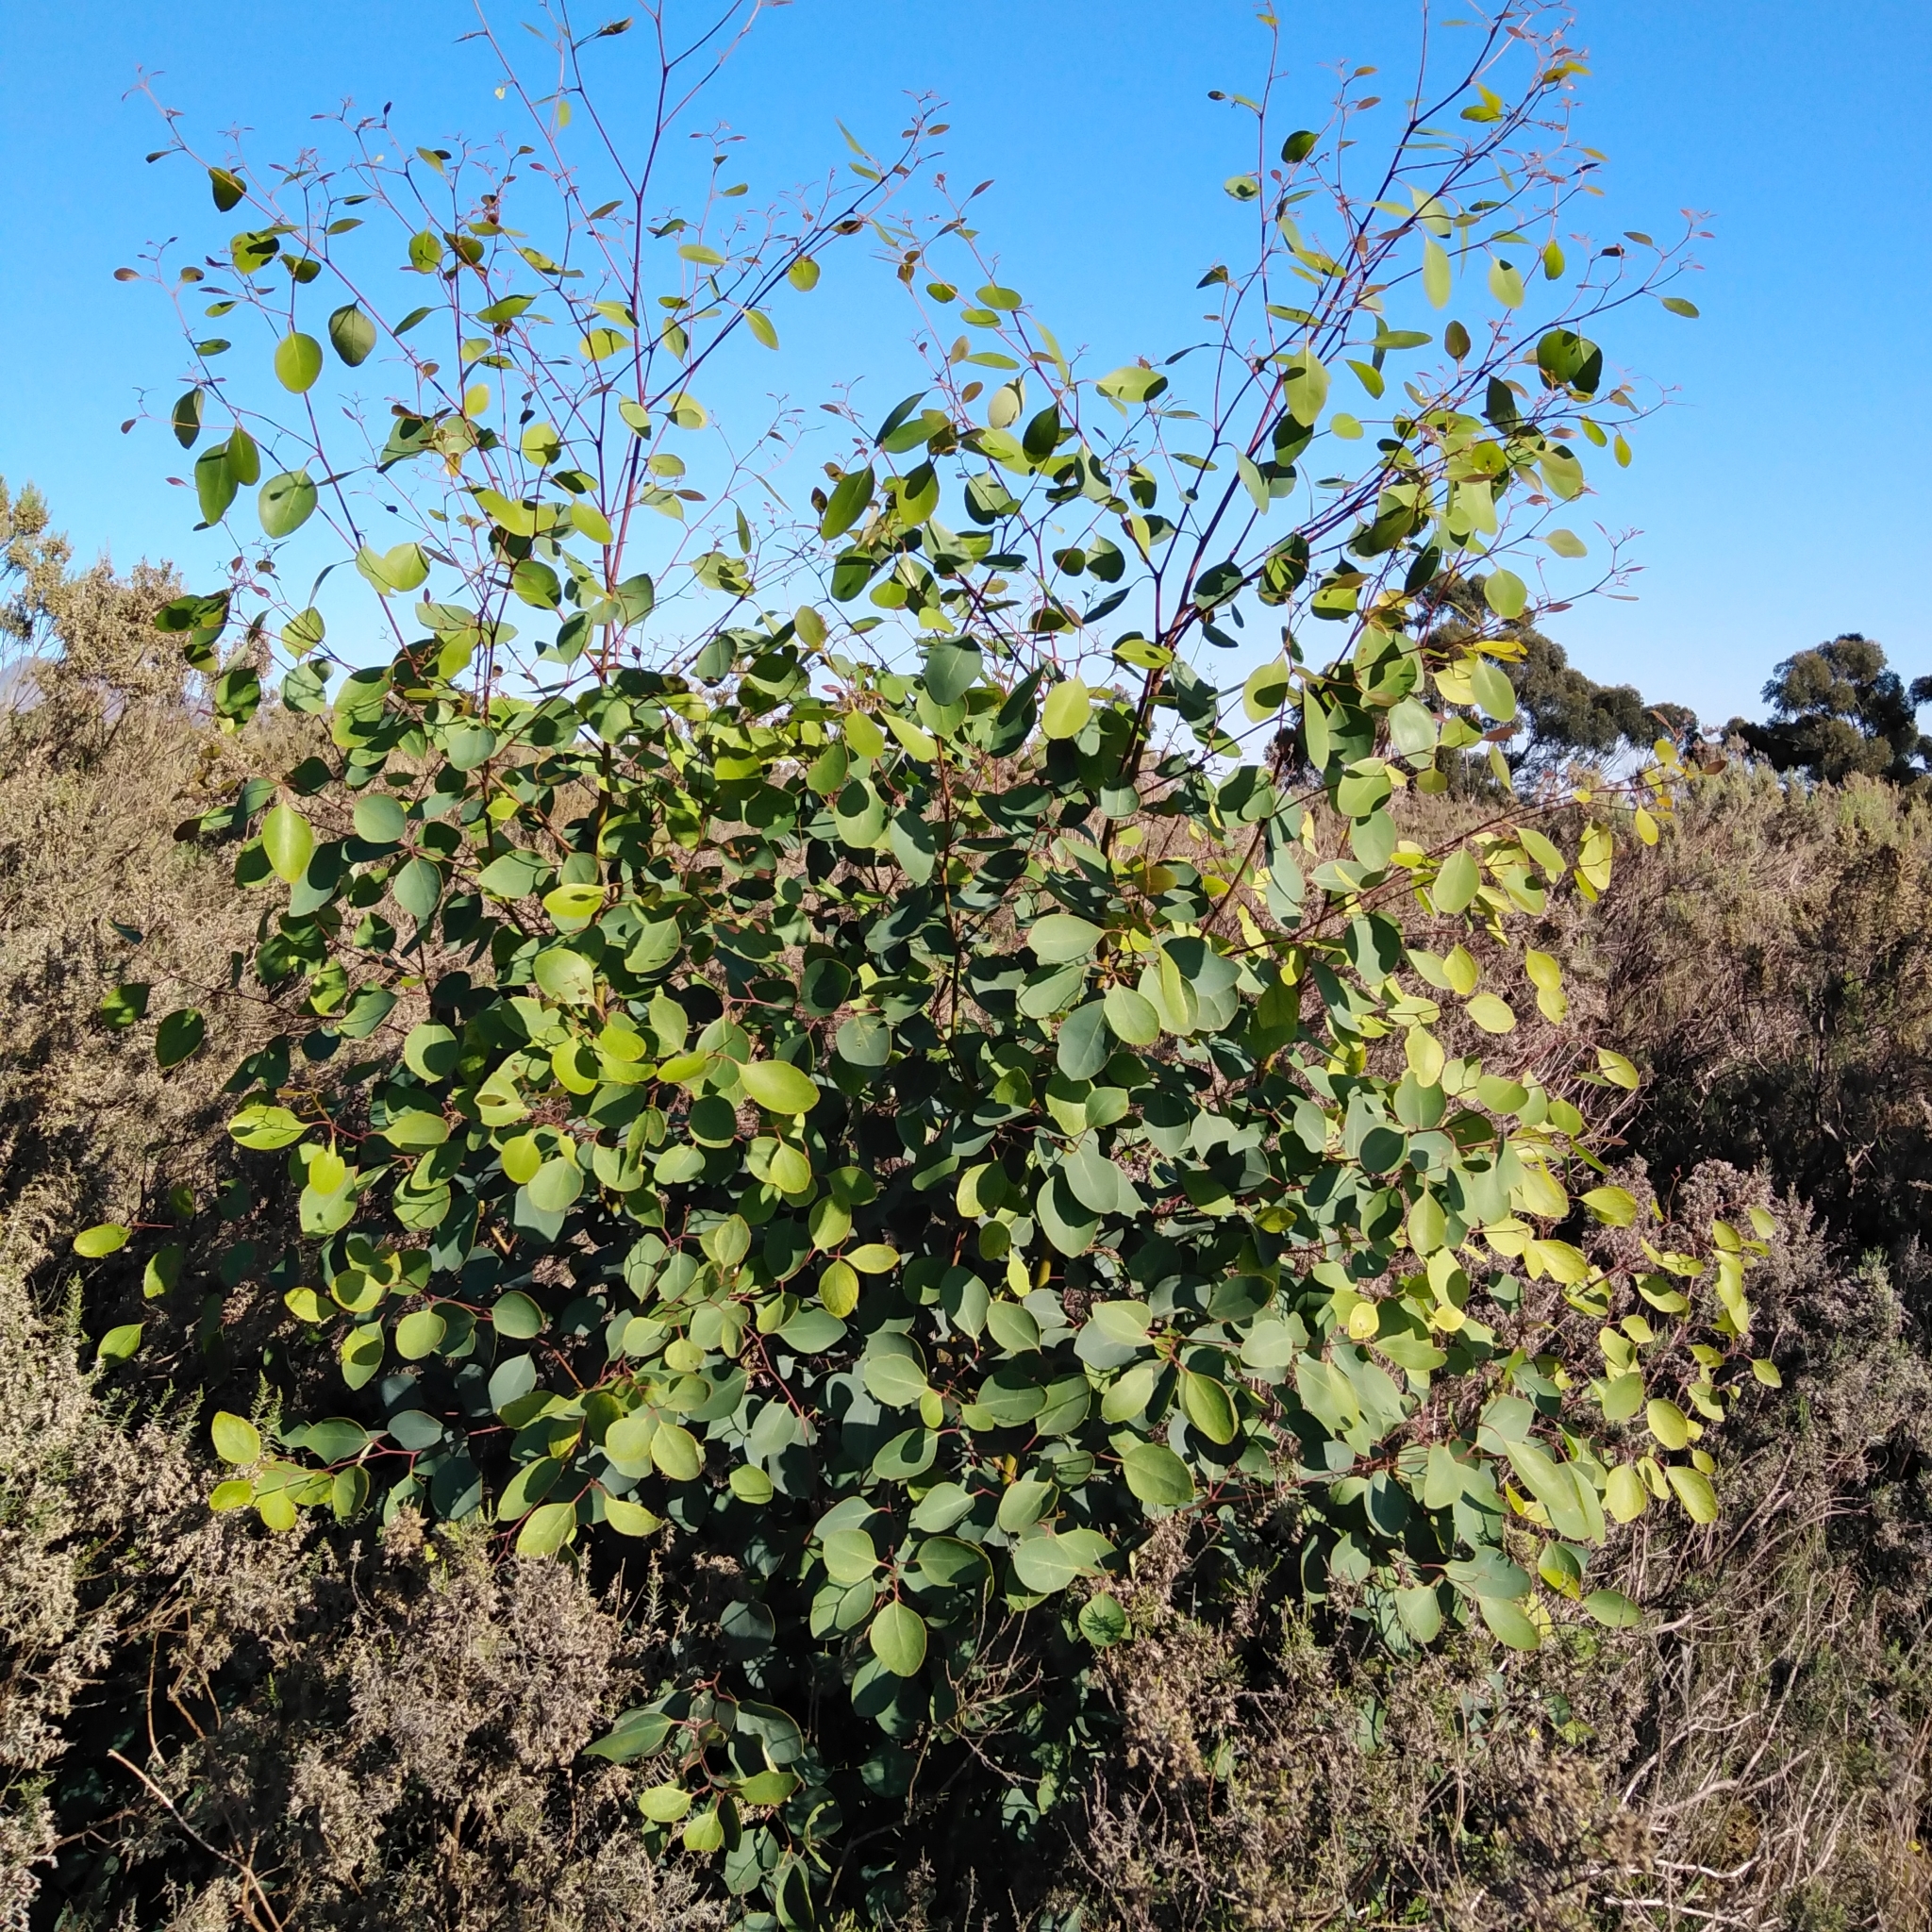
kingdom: Plantae
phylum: Tracheophyta
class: Magnoliopsida
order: Myrtales
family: Myrtaceae
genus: Eucalyptus
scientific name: Eucalyptus cladocalyx
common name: Sugargum
